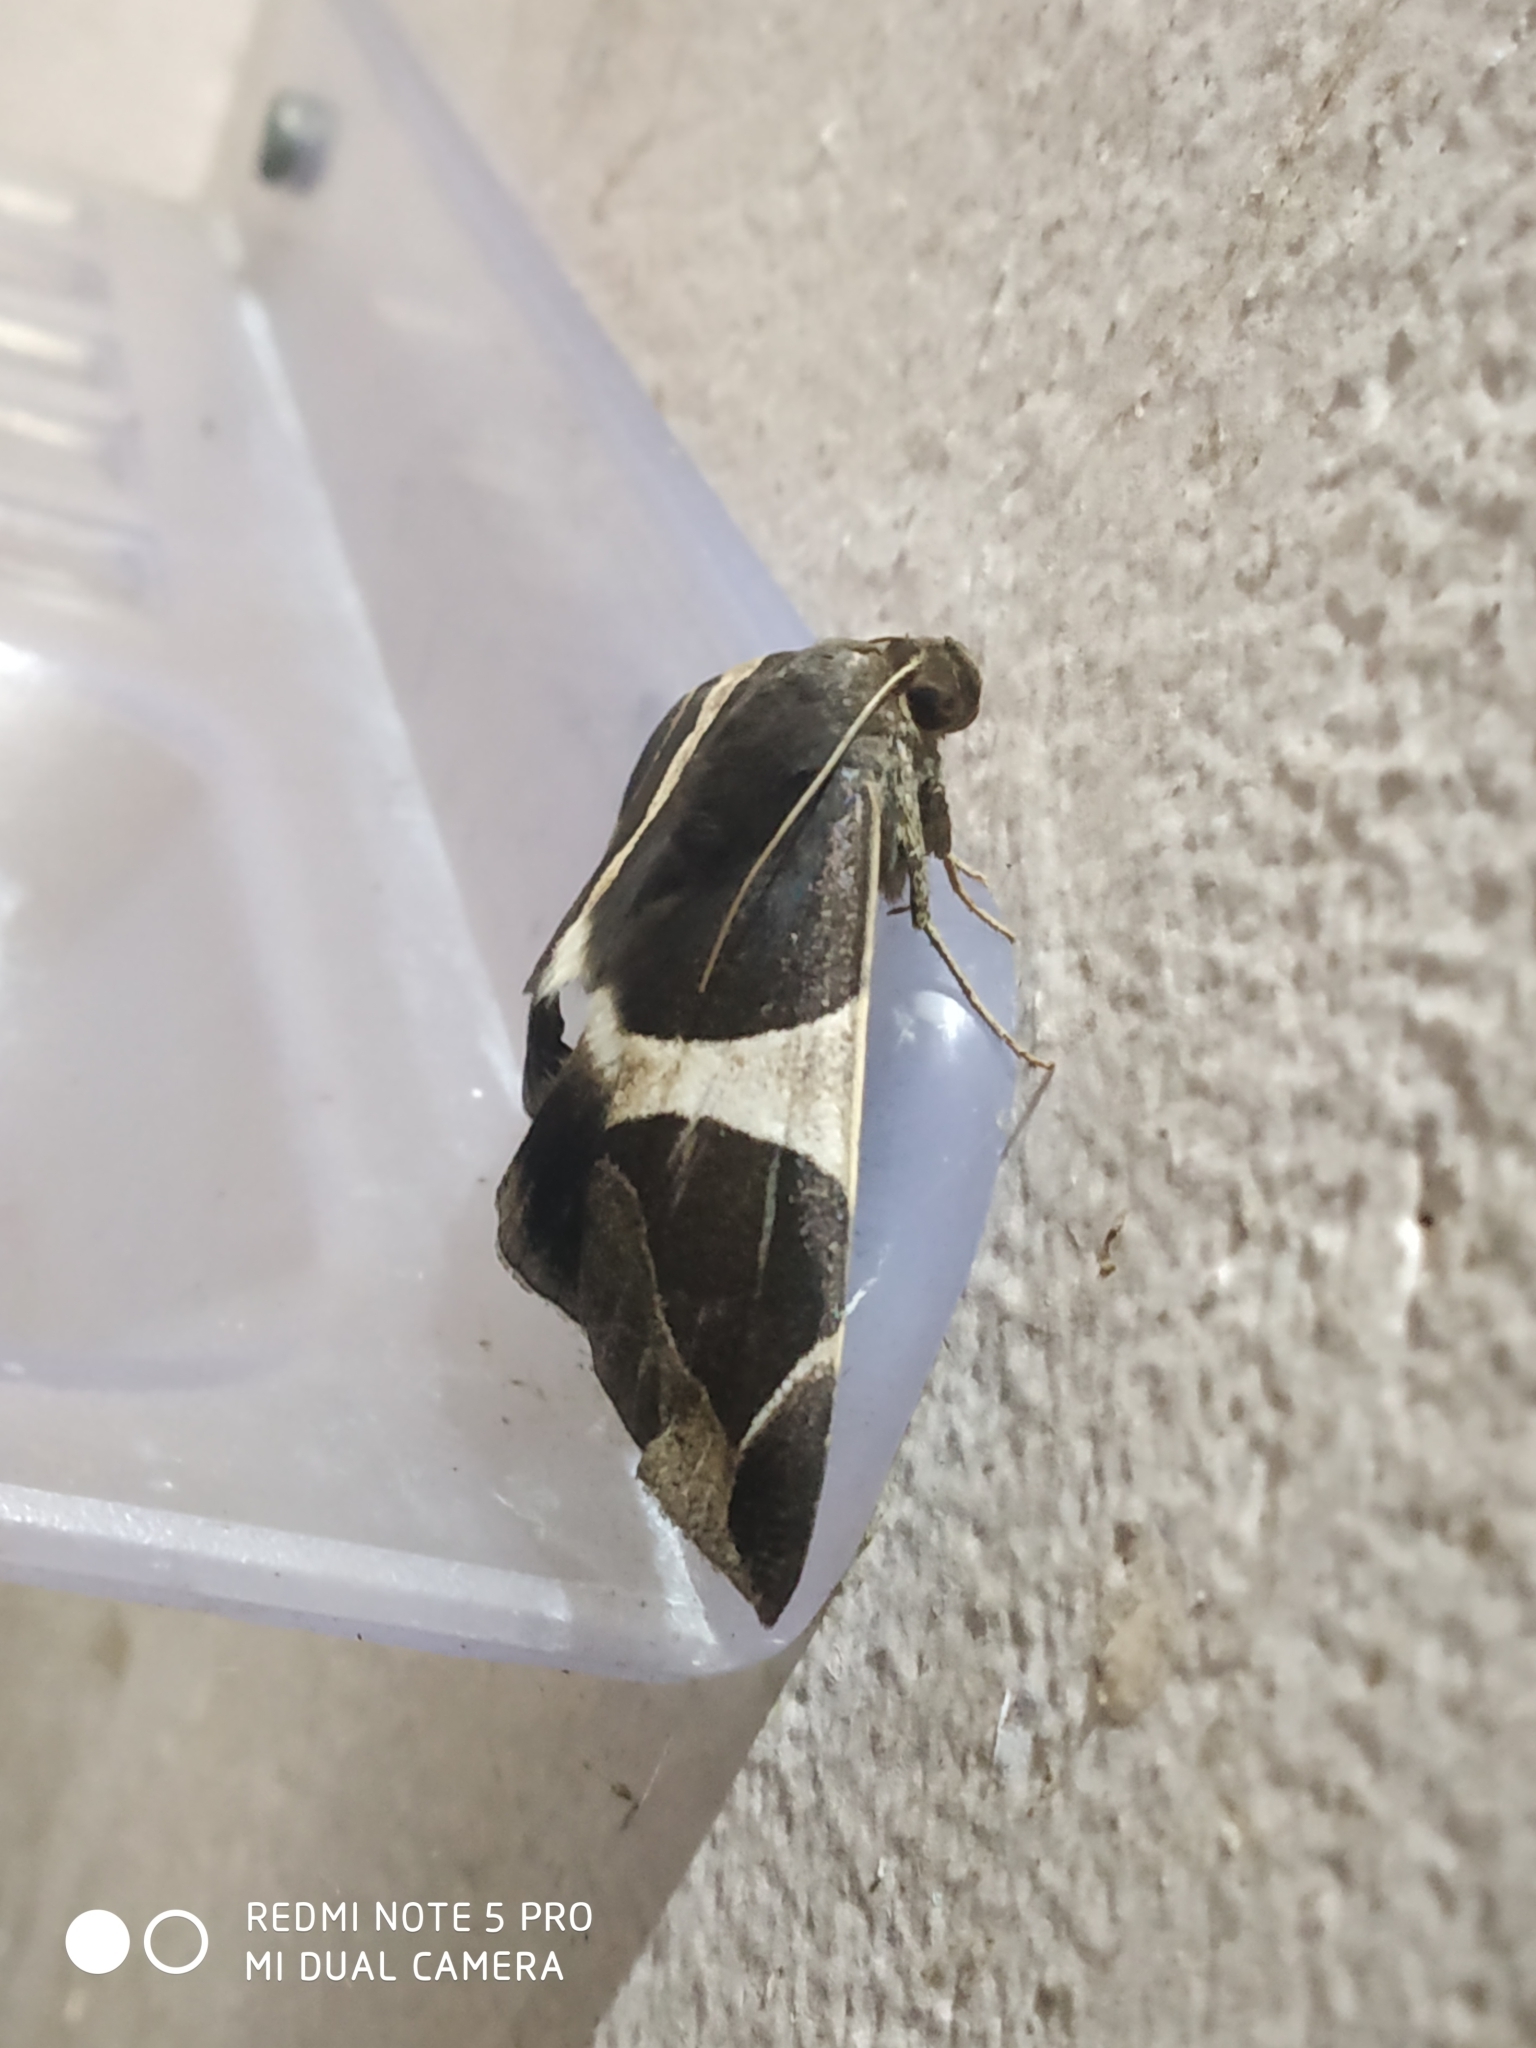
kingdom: Animalia
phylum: Arthropoda
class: Insecta
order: Lepidoptera
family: Erebidae
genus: Bastilla
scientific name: Bastilla crameri
